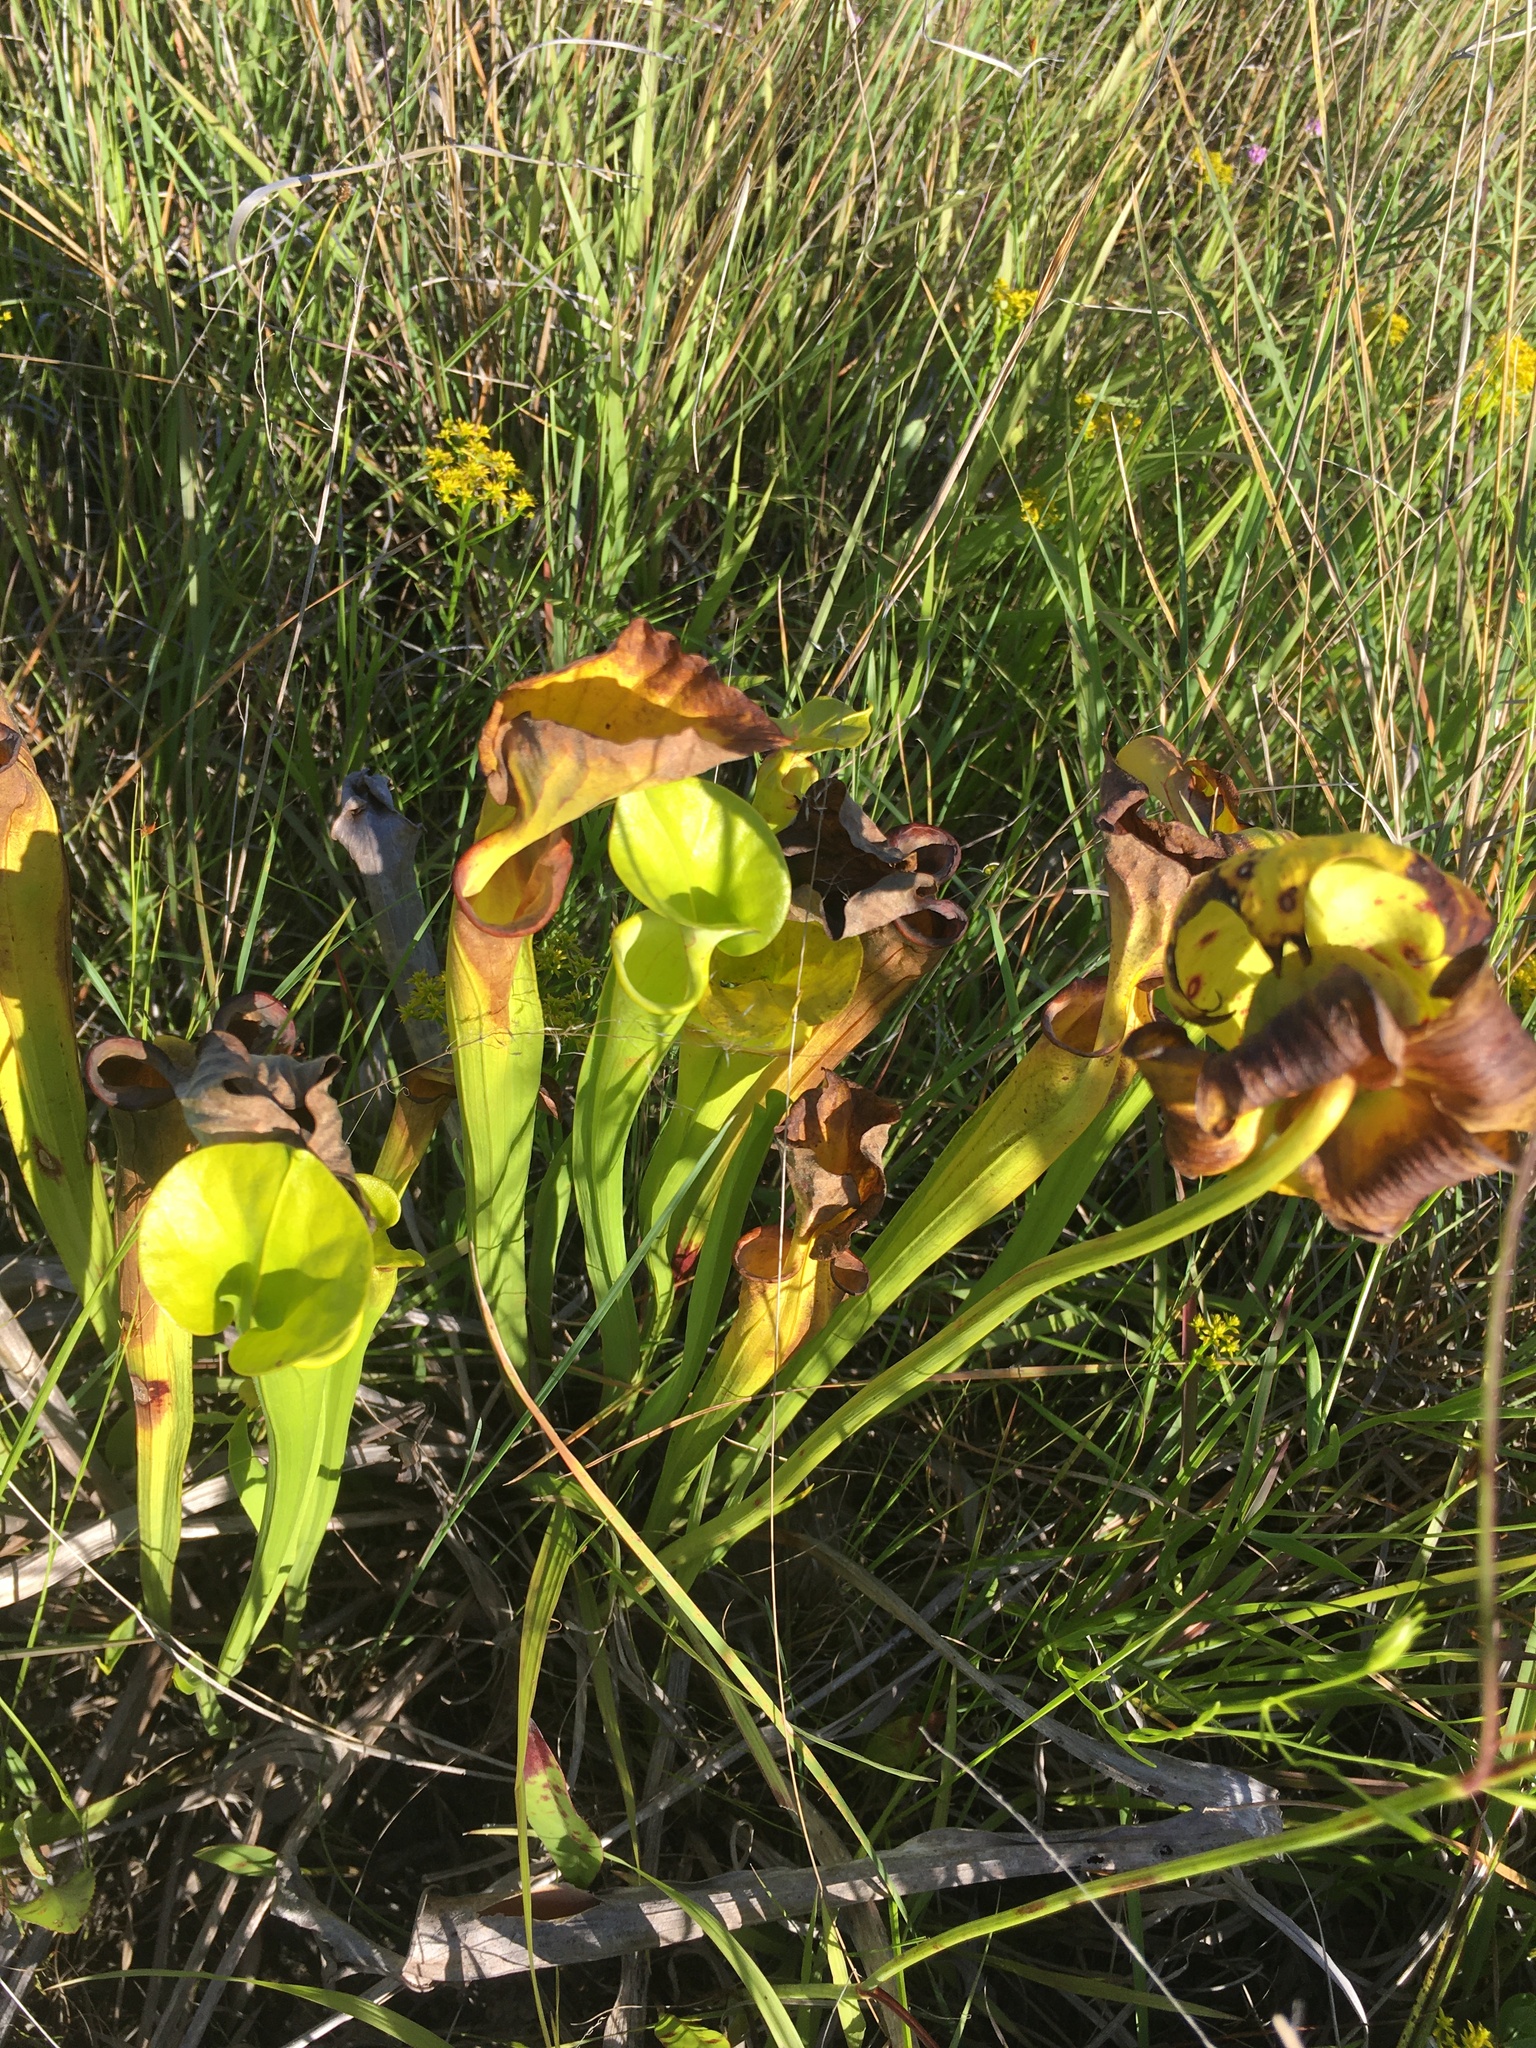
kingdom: Plantae
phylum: Tracheophyta
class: Magnoliopsida
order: Ericales
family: Sarraceniaceae
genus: Sarracenia
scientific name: Sarracenia flava
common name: Trumpets
